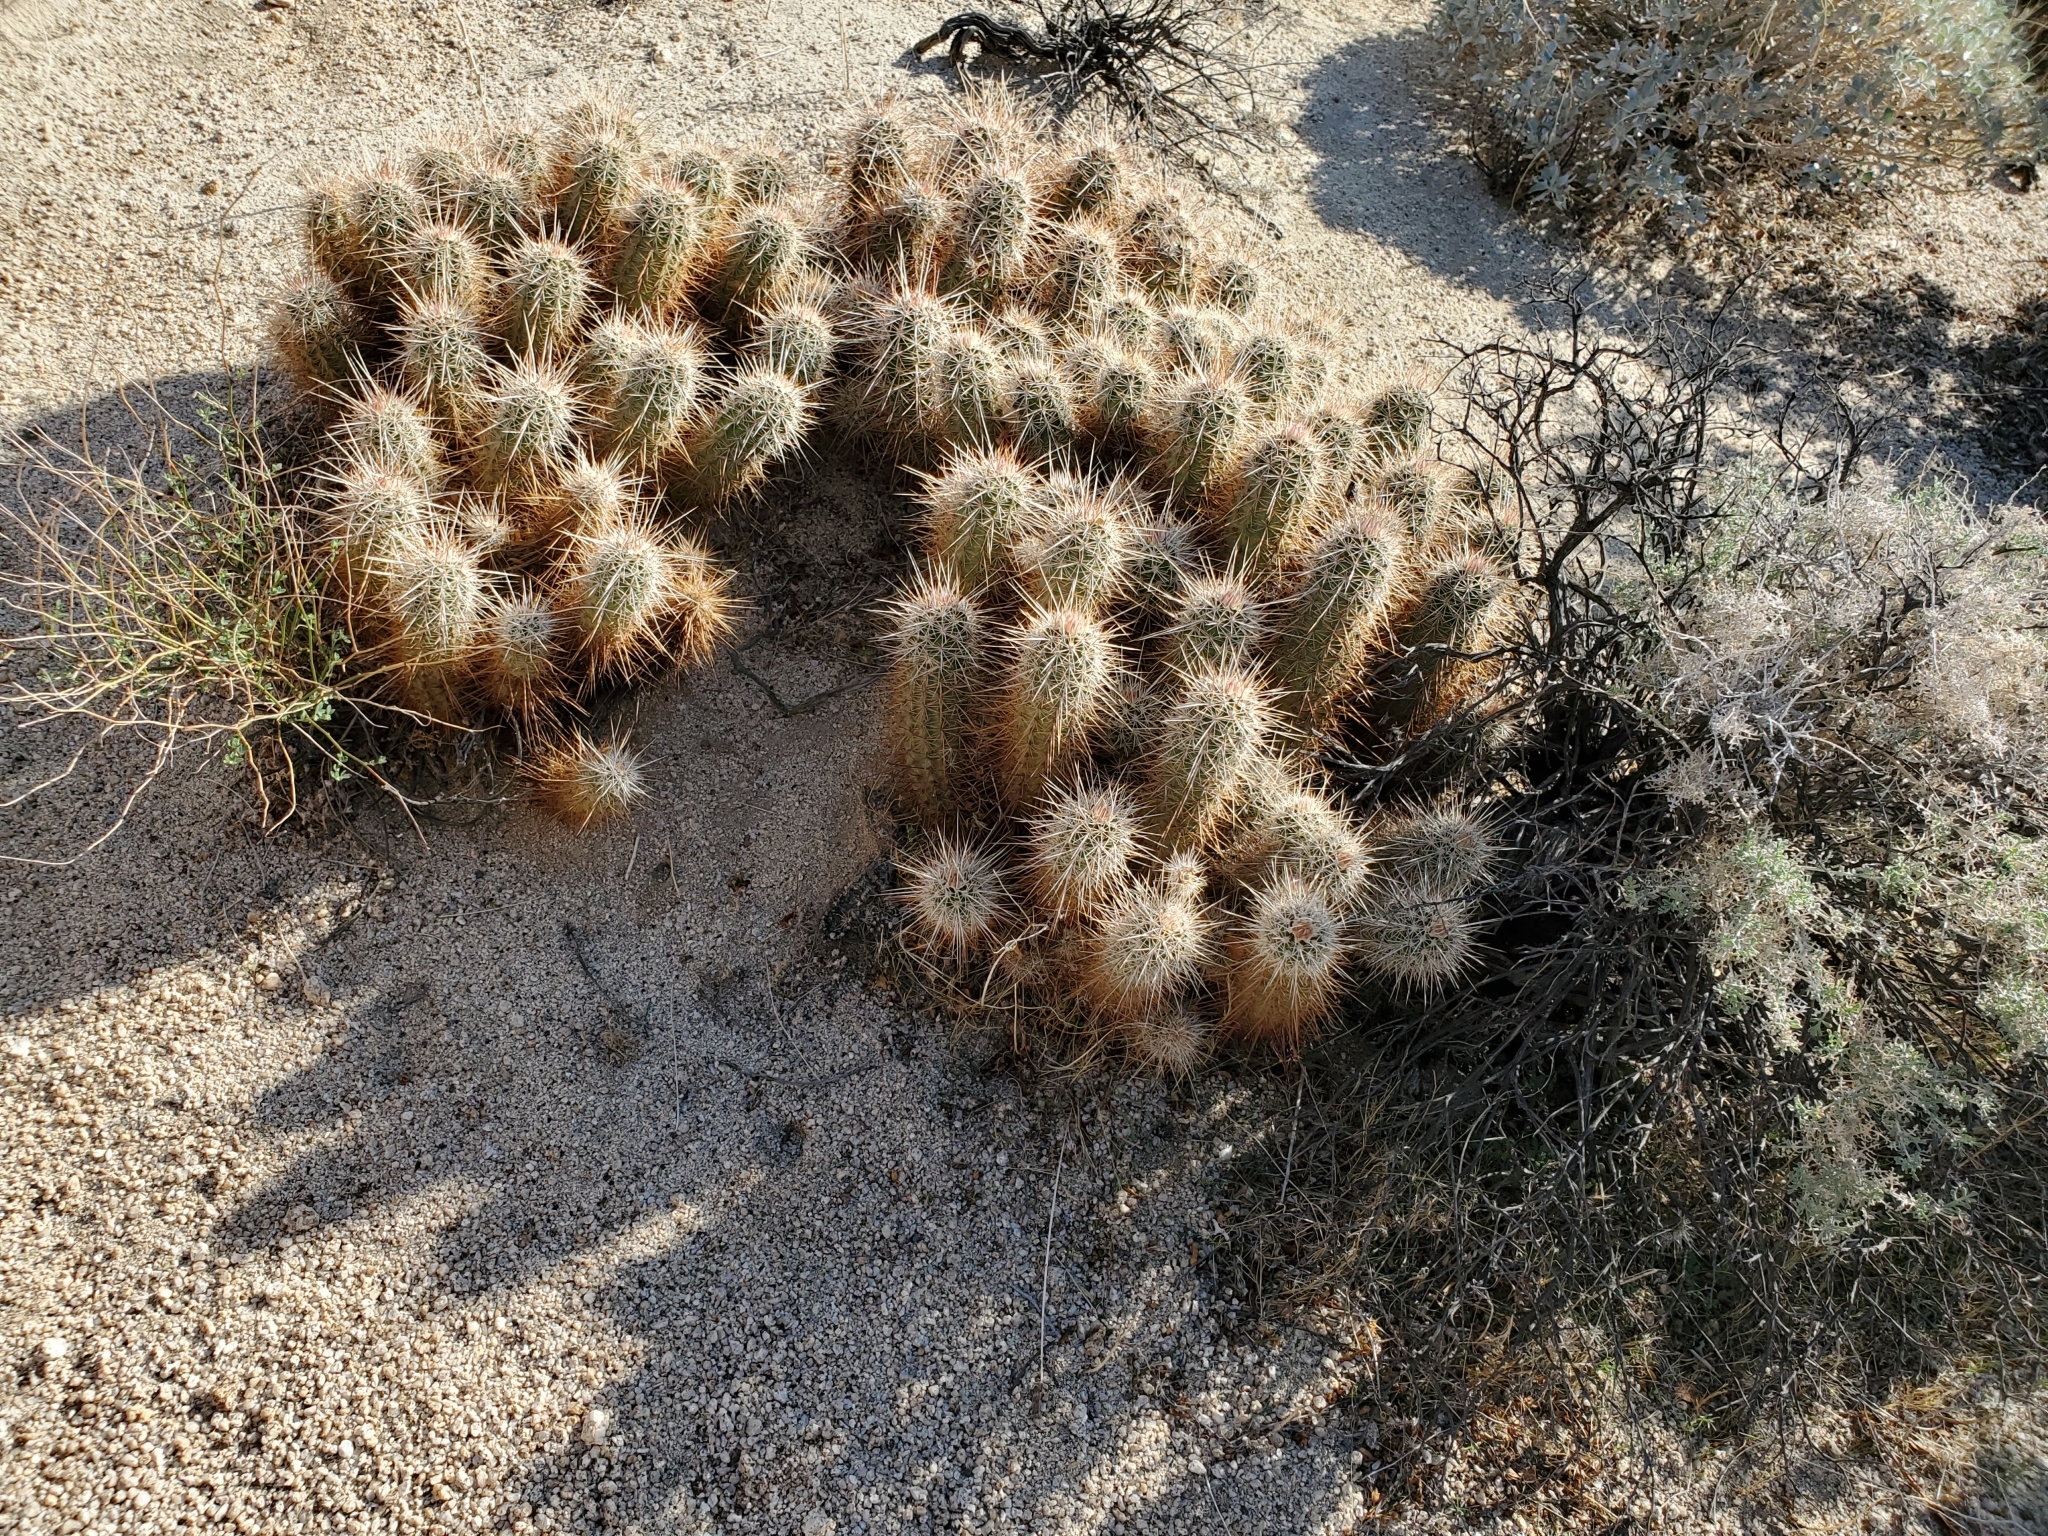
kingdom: Plantae
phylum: Tracheophyta
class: Magnoliopsida
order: Caryophyllales
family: Cactaceae
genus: Echinocereus
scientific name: Echinocereus engelmannii
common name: Engelmann's hedgehog cactus
